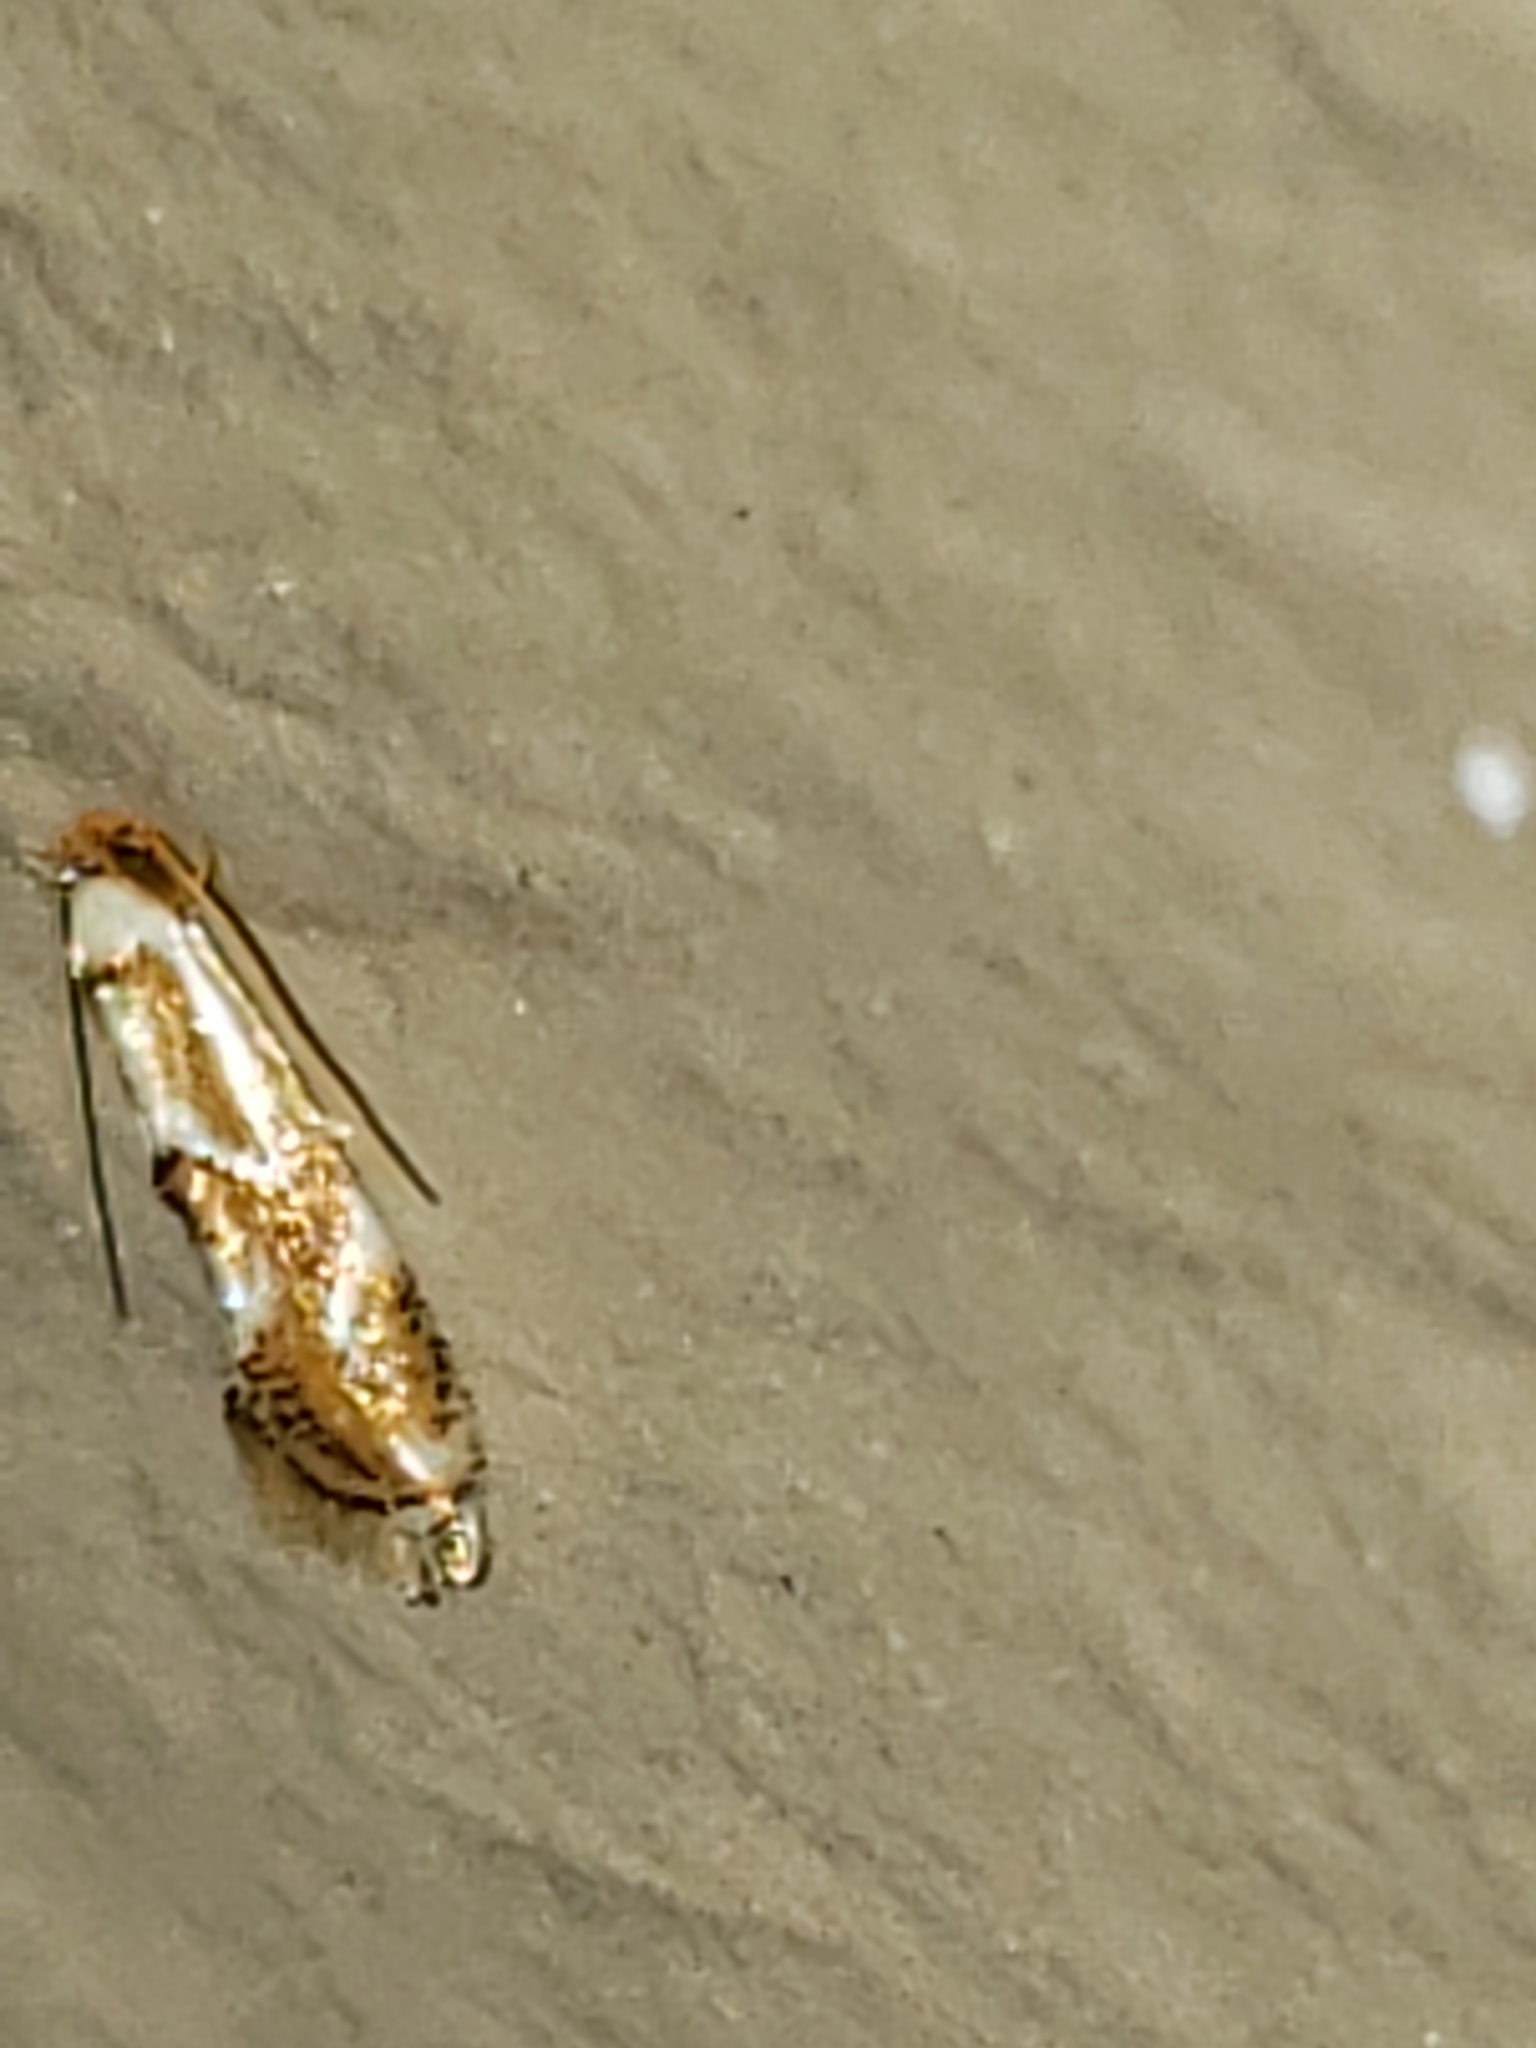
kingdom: Animalia
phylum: Arthropoda
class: Insecta
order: Lepidoptera
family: Lyonetiidae
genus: Philonome
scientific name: Philonome clemensella
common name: Clemen's philonome moth
